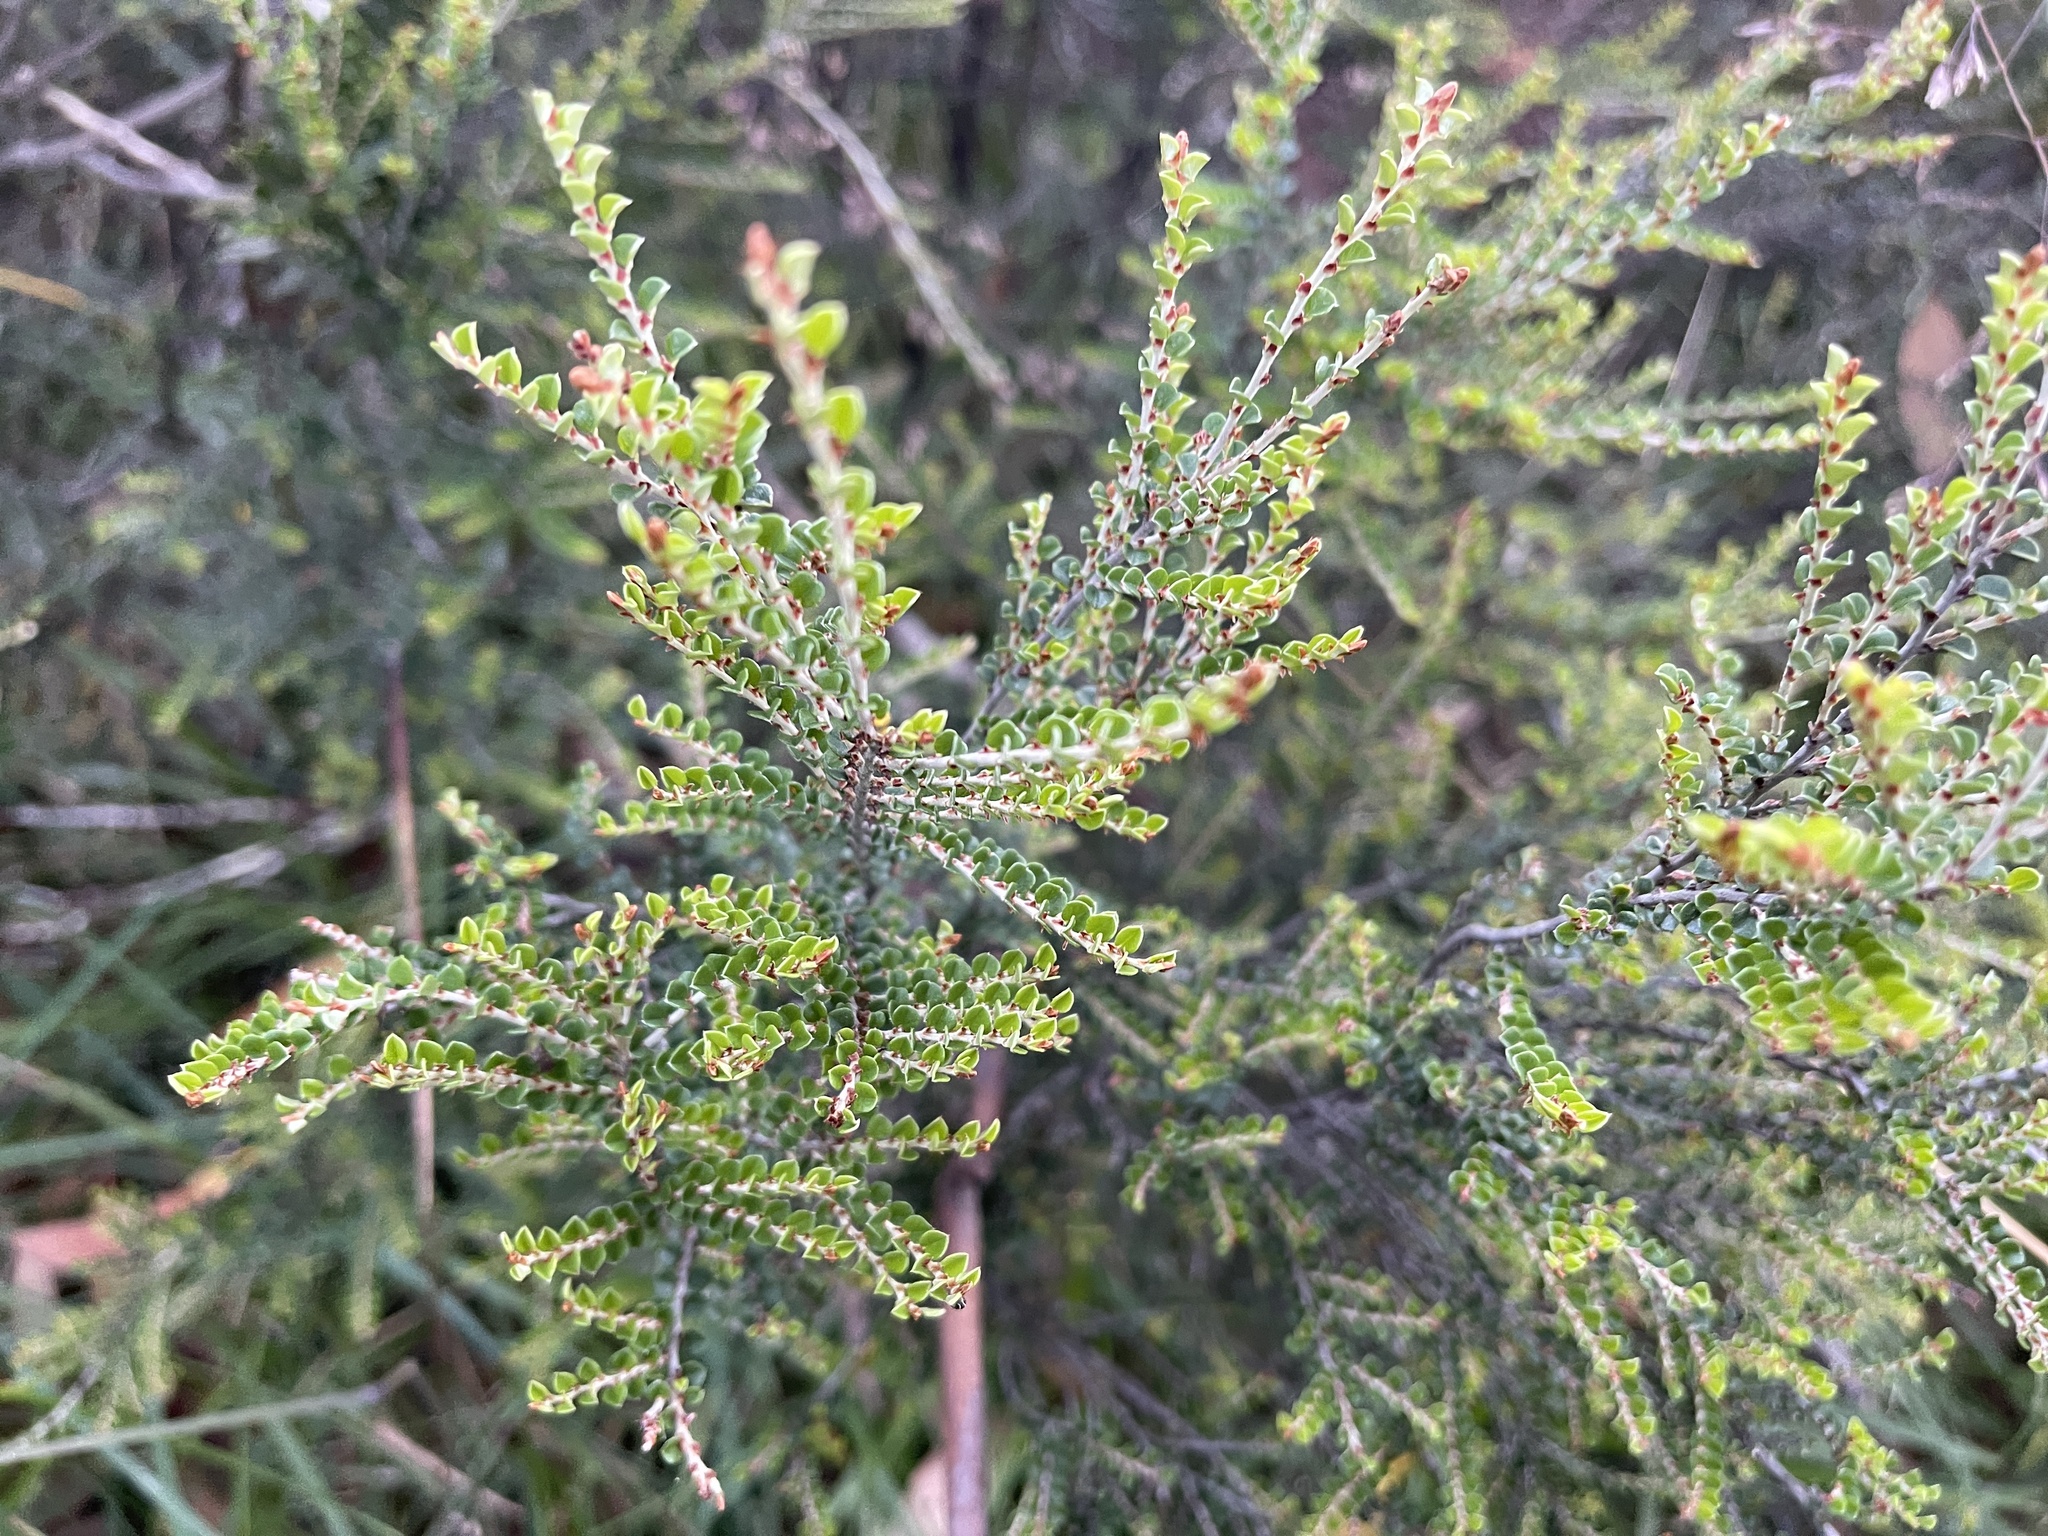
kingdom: Plantae
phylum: Tracheophyta
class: Magnoliopsida
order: Fabales
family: Fabaceae
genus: Bossiaea
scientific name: Bossiaea sericea
